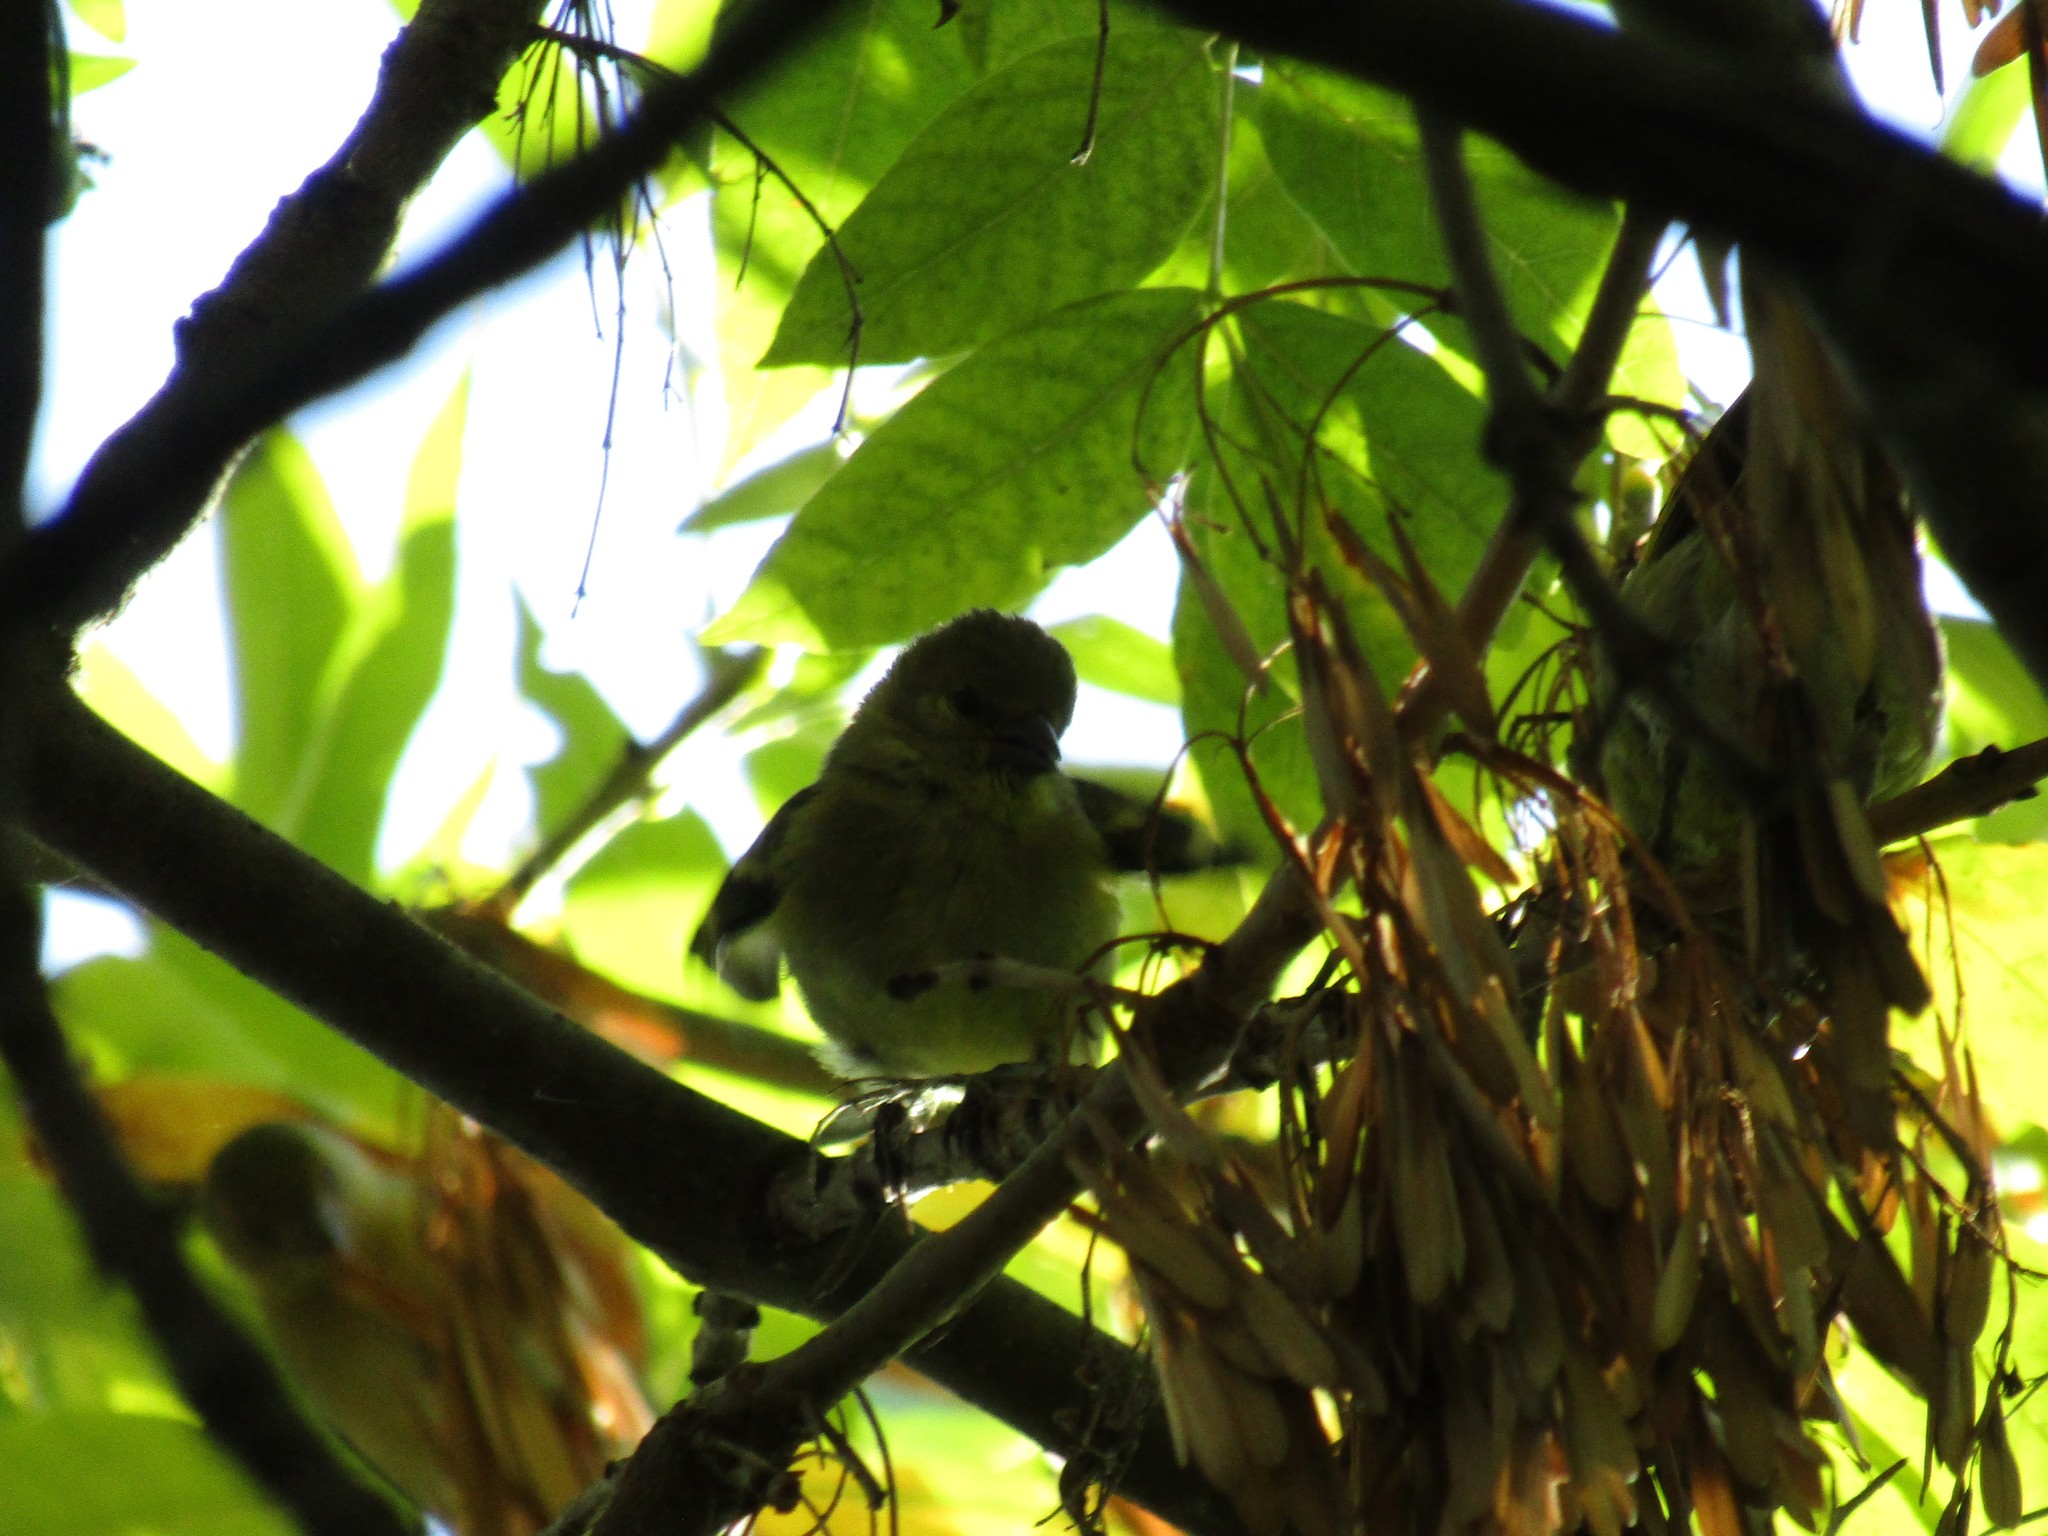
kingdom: Animalia
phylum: Chordata
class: Aves
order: Passeriformes
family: Fringillidae
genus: Spinus
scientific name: Spinus magellanicus
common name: Hooded siskin
